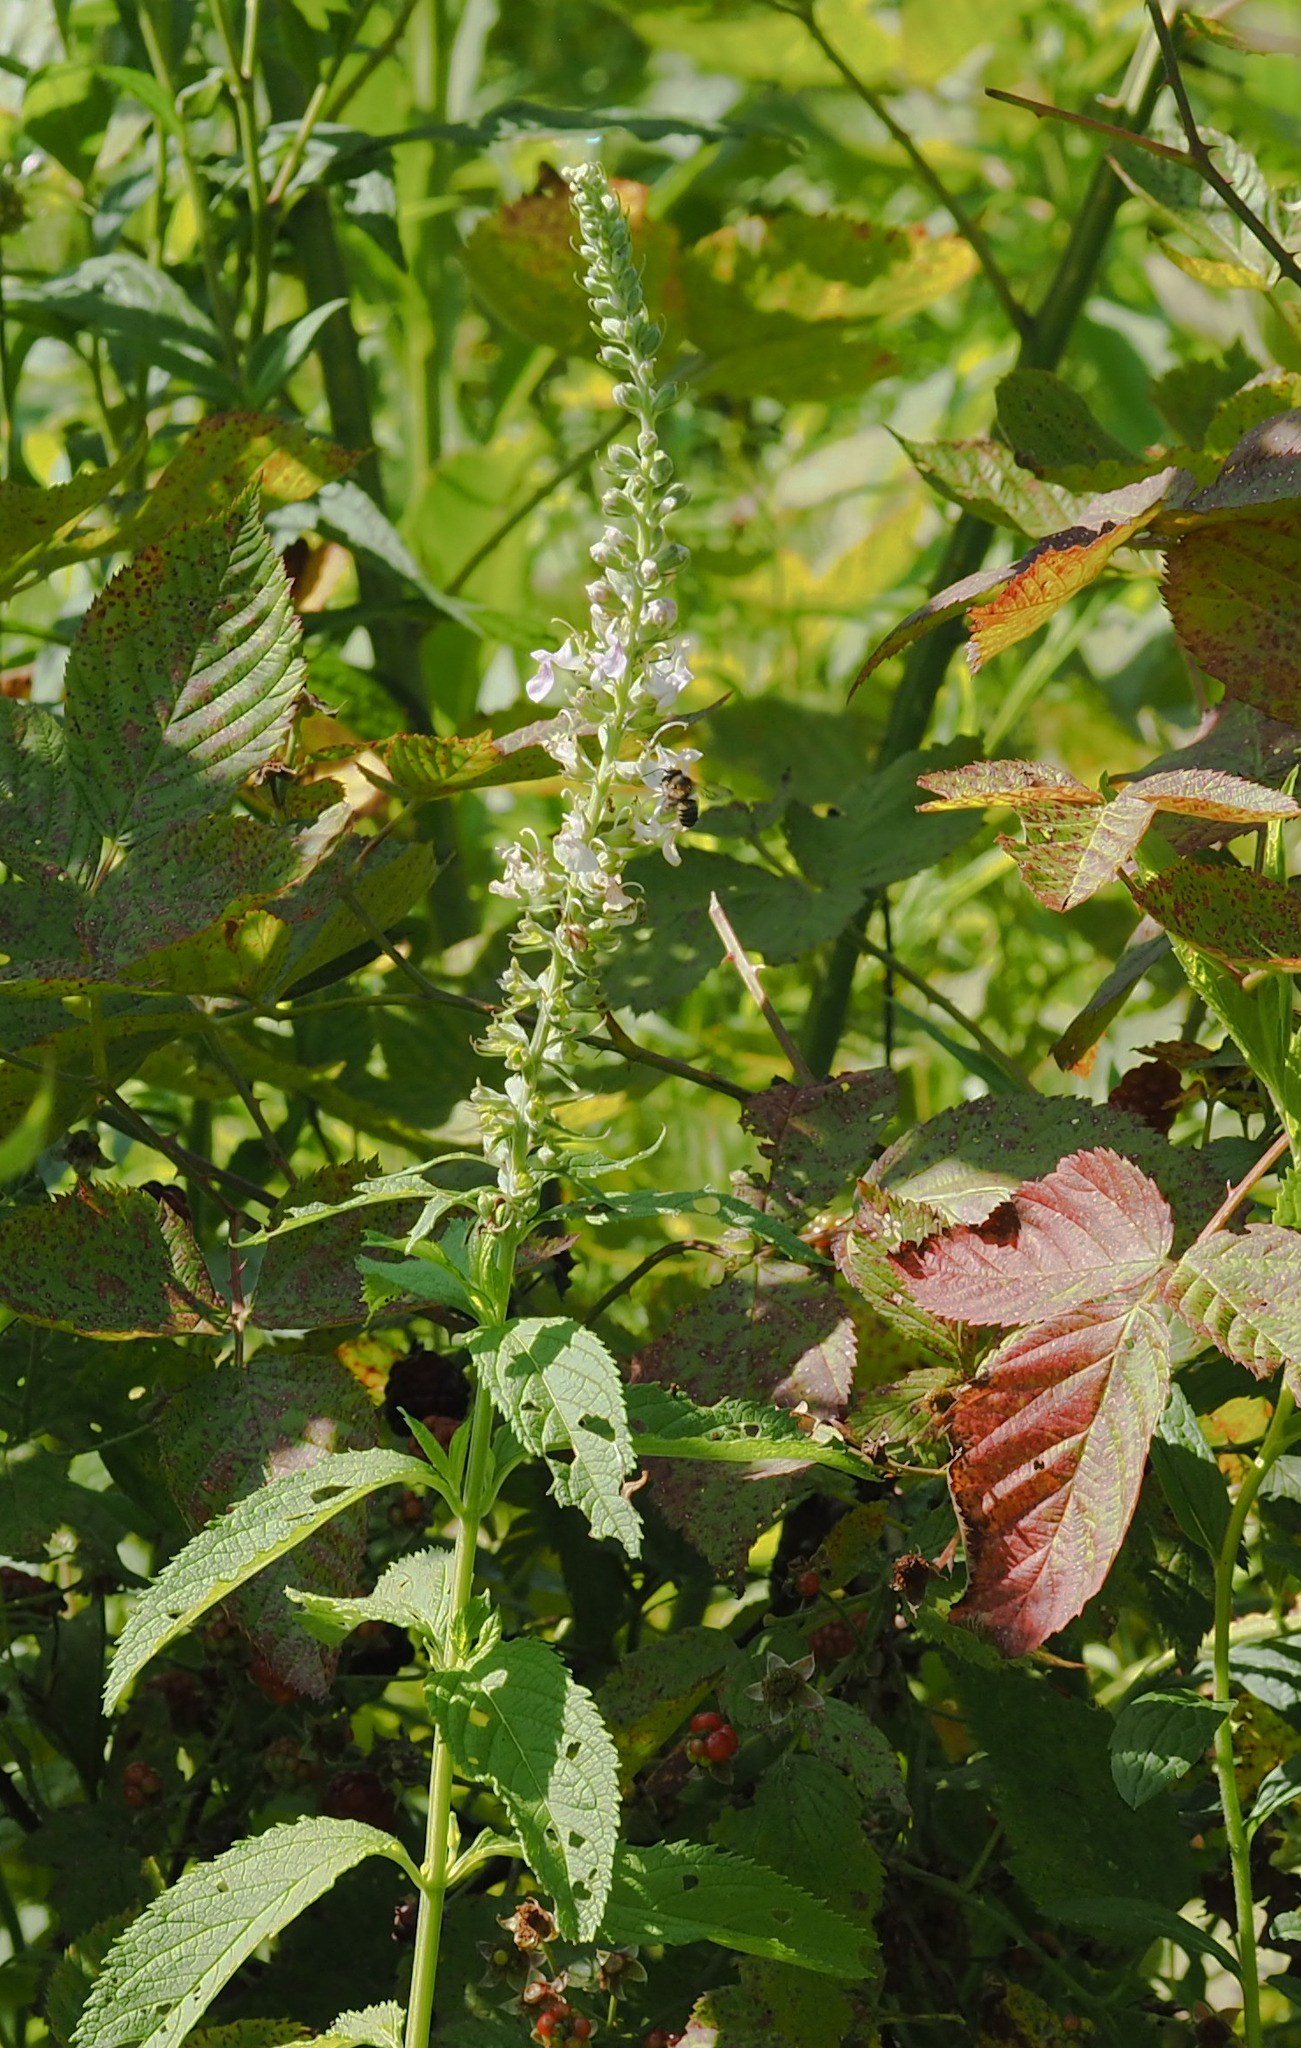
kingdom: Plantae
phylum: Tracheophyta
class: Magnoliopsida
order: Lamiales
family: Lamiaceae
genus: Teucrium
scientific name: Teucrium canadense
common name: American germander
